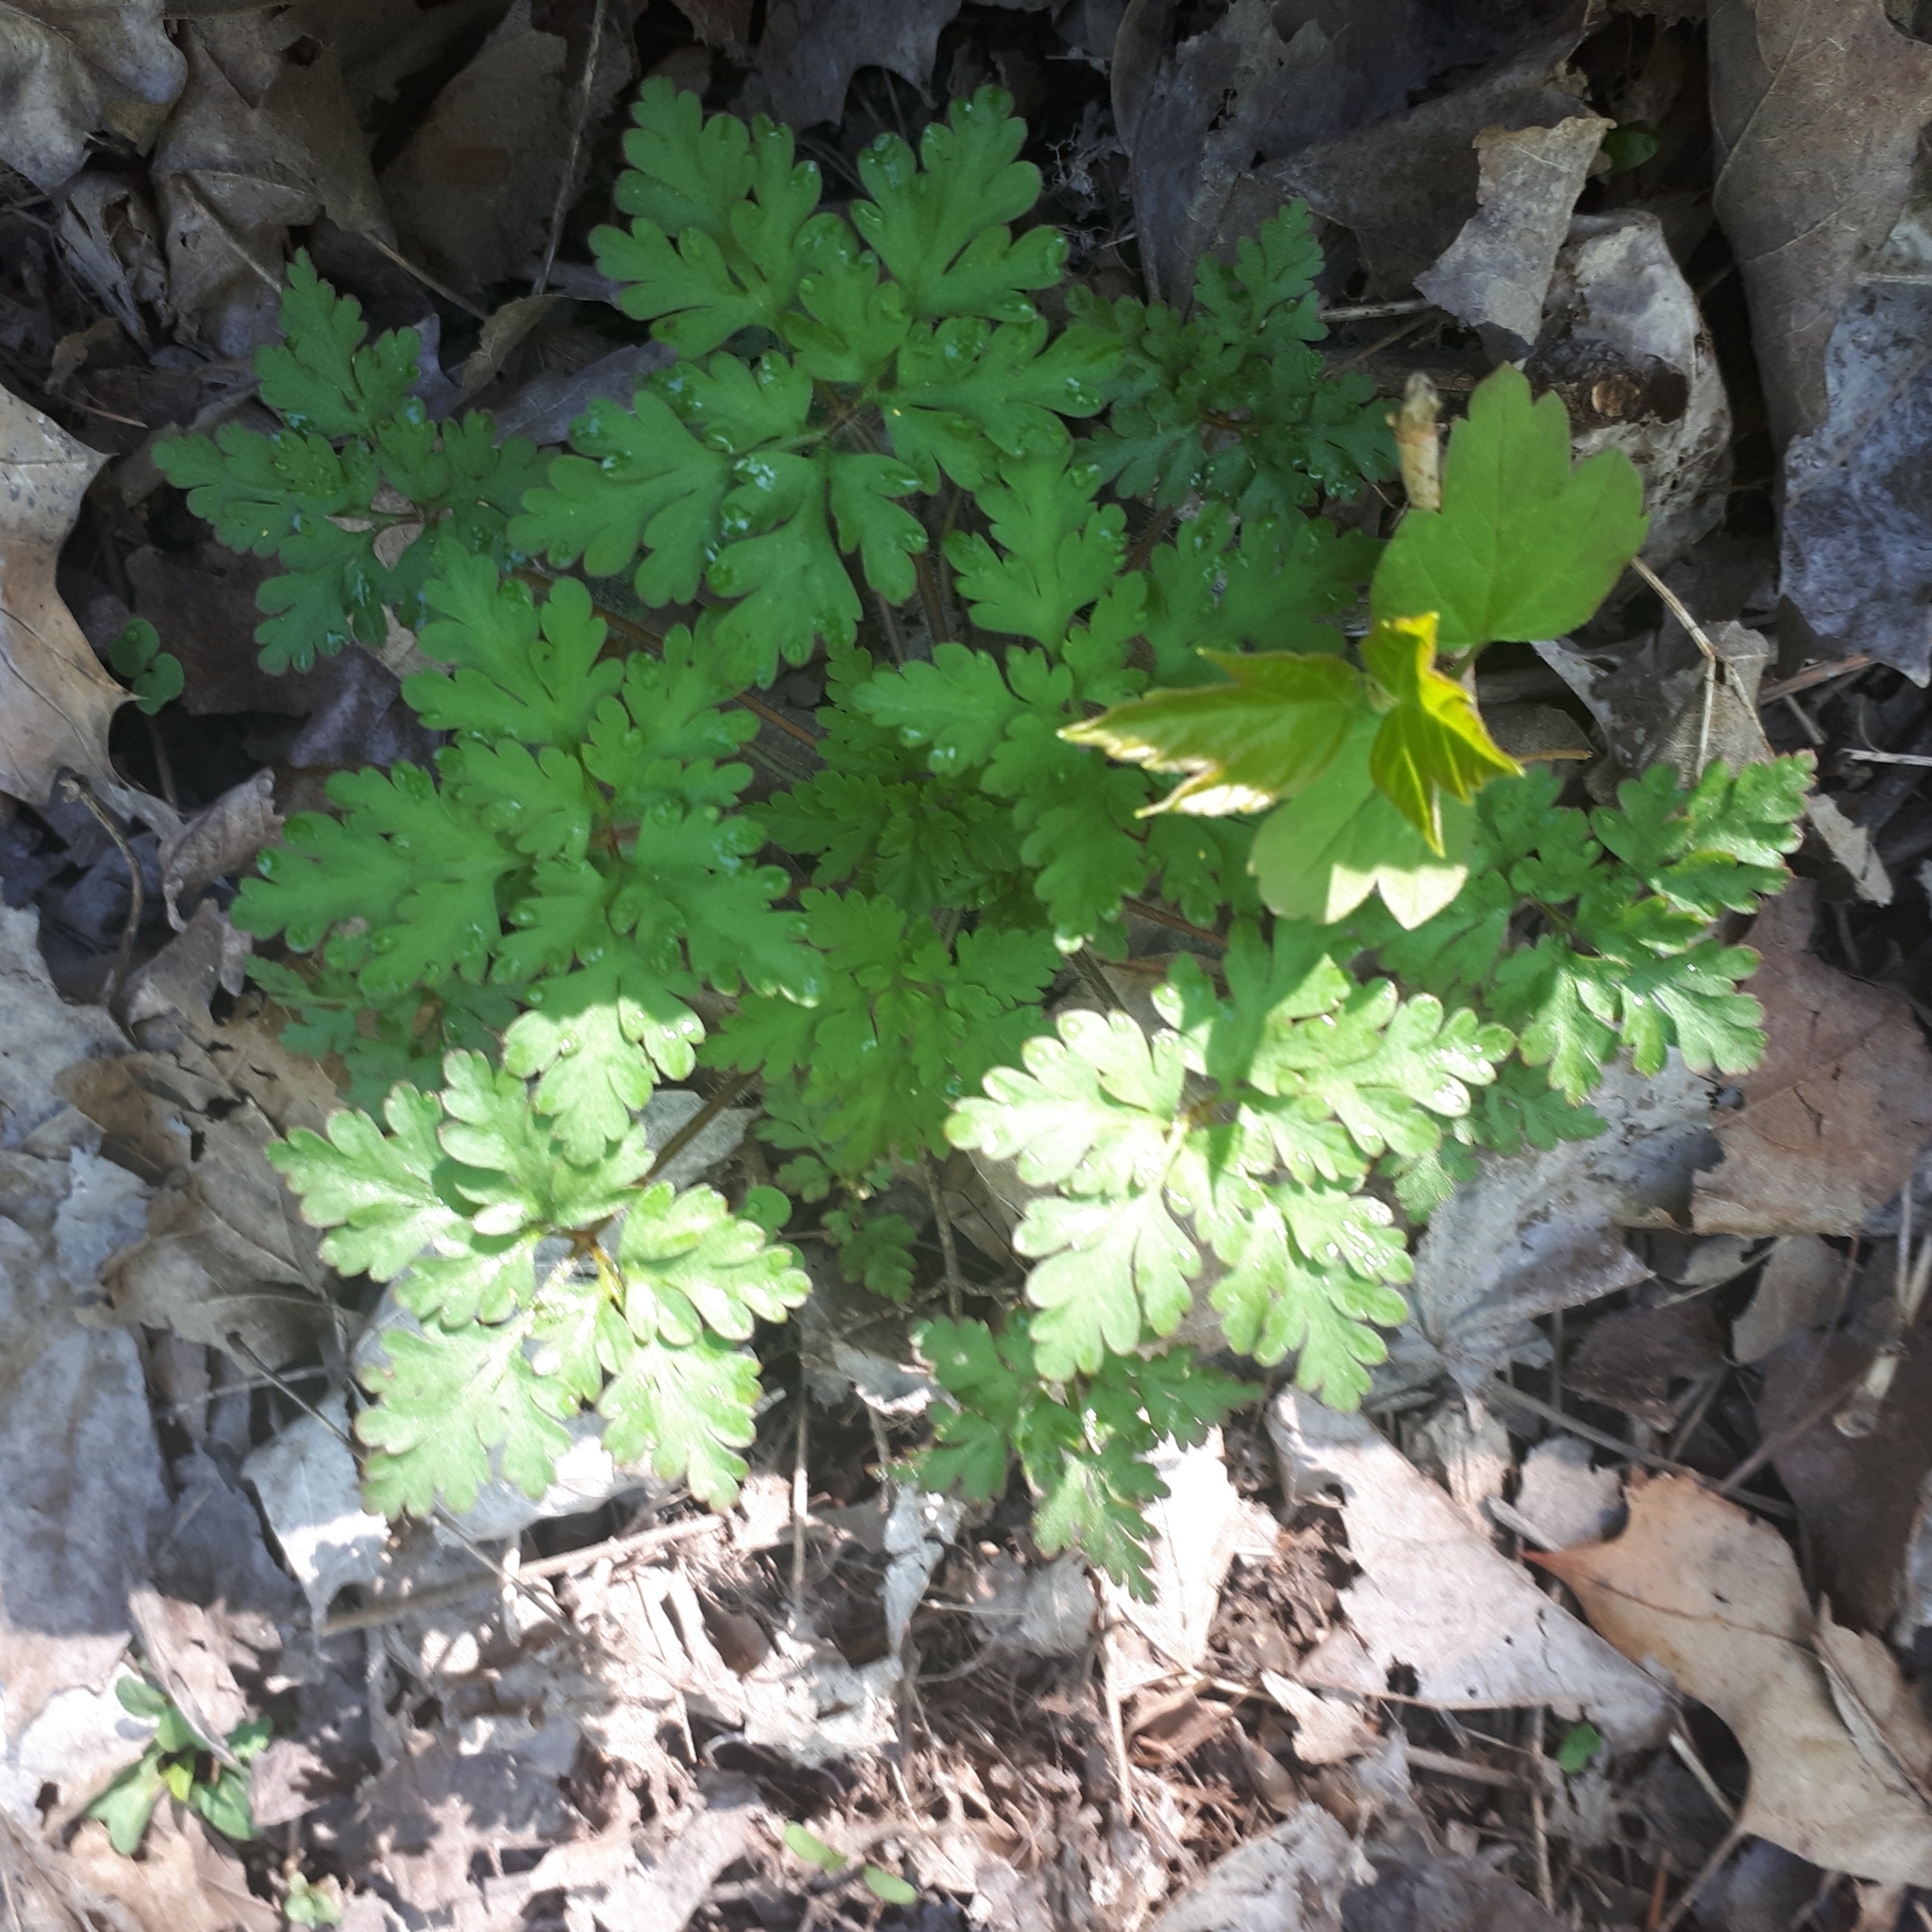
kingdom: Plantae
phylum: Tracheophyta
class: Magnoliopsida
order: Geraniales
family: Geraniaceae
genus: Geranium
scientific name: Geranium robertianum
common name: Herb-robert
